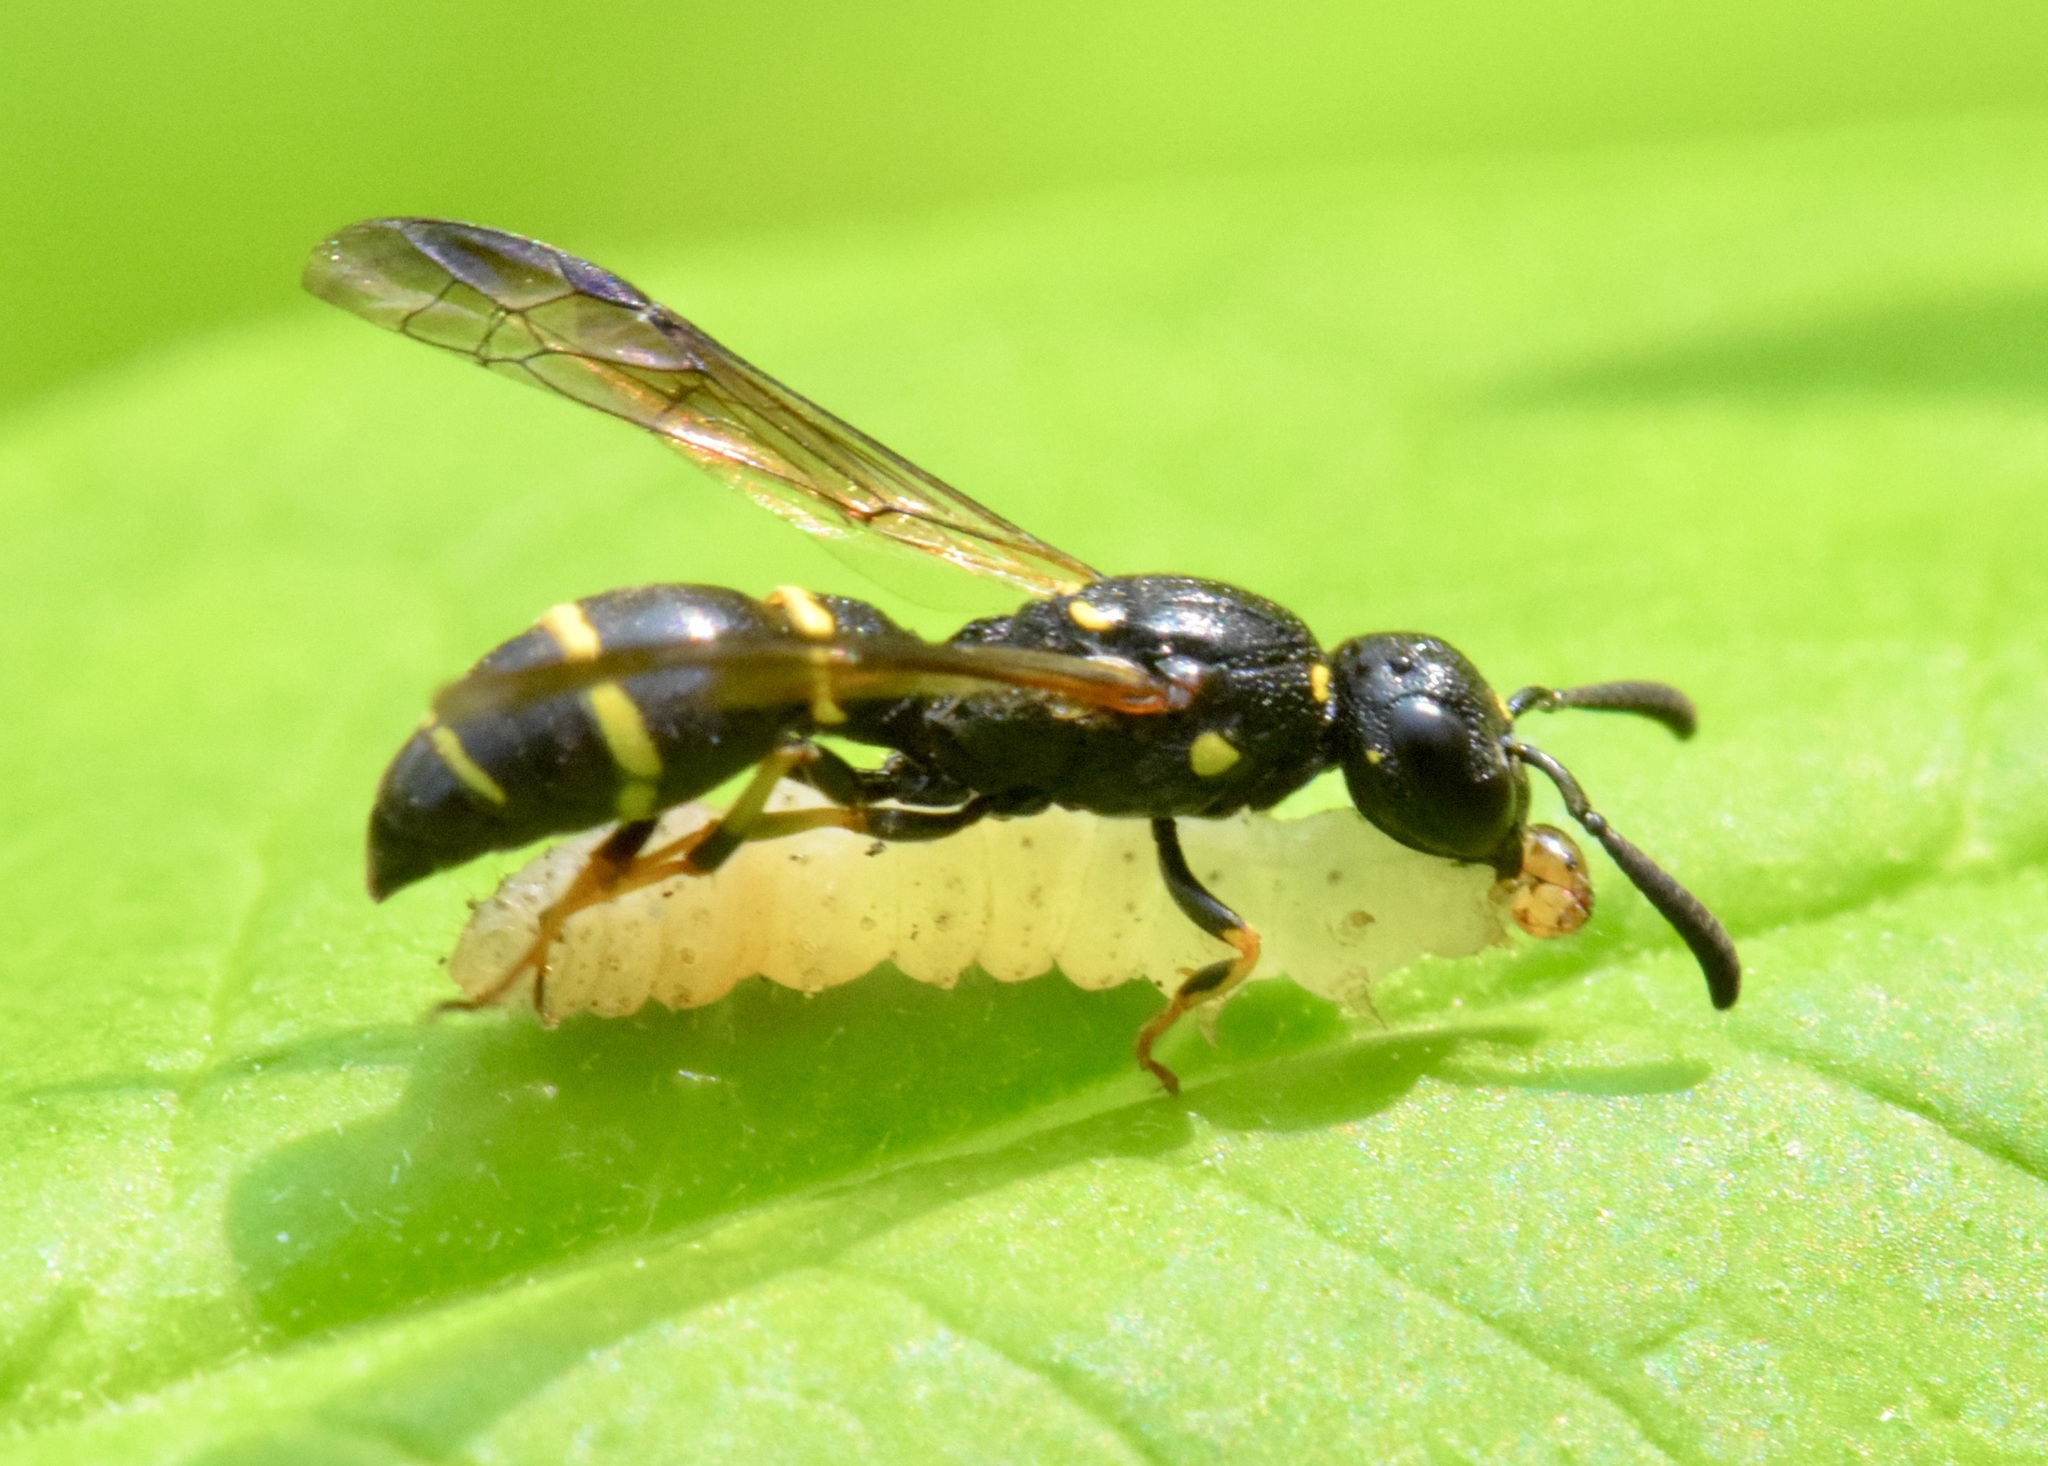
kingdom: Animalia
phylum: Arthropoda
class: Insecta
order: Hymenoptera
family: Eumenidae
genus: Symmorphus
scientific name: Symmorphus
